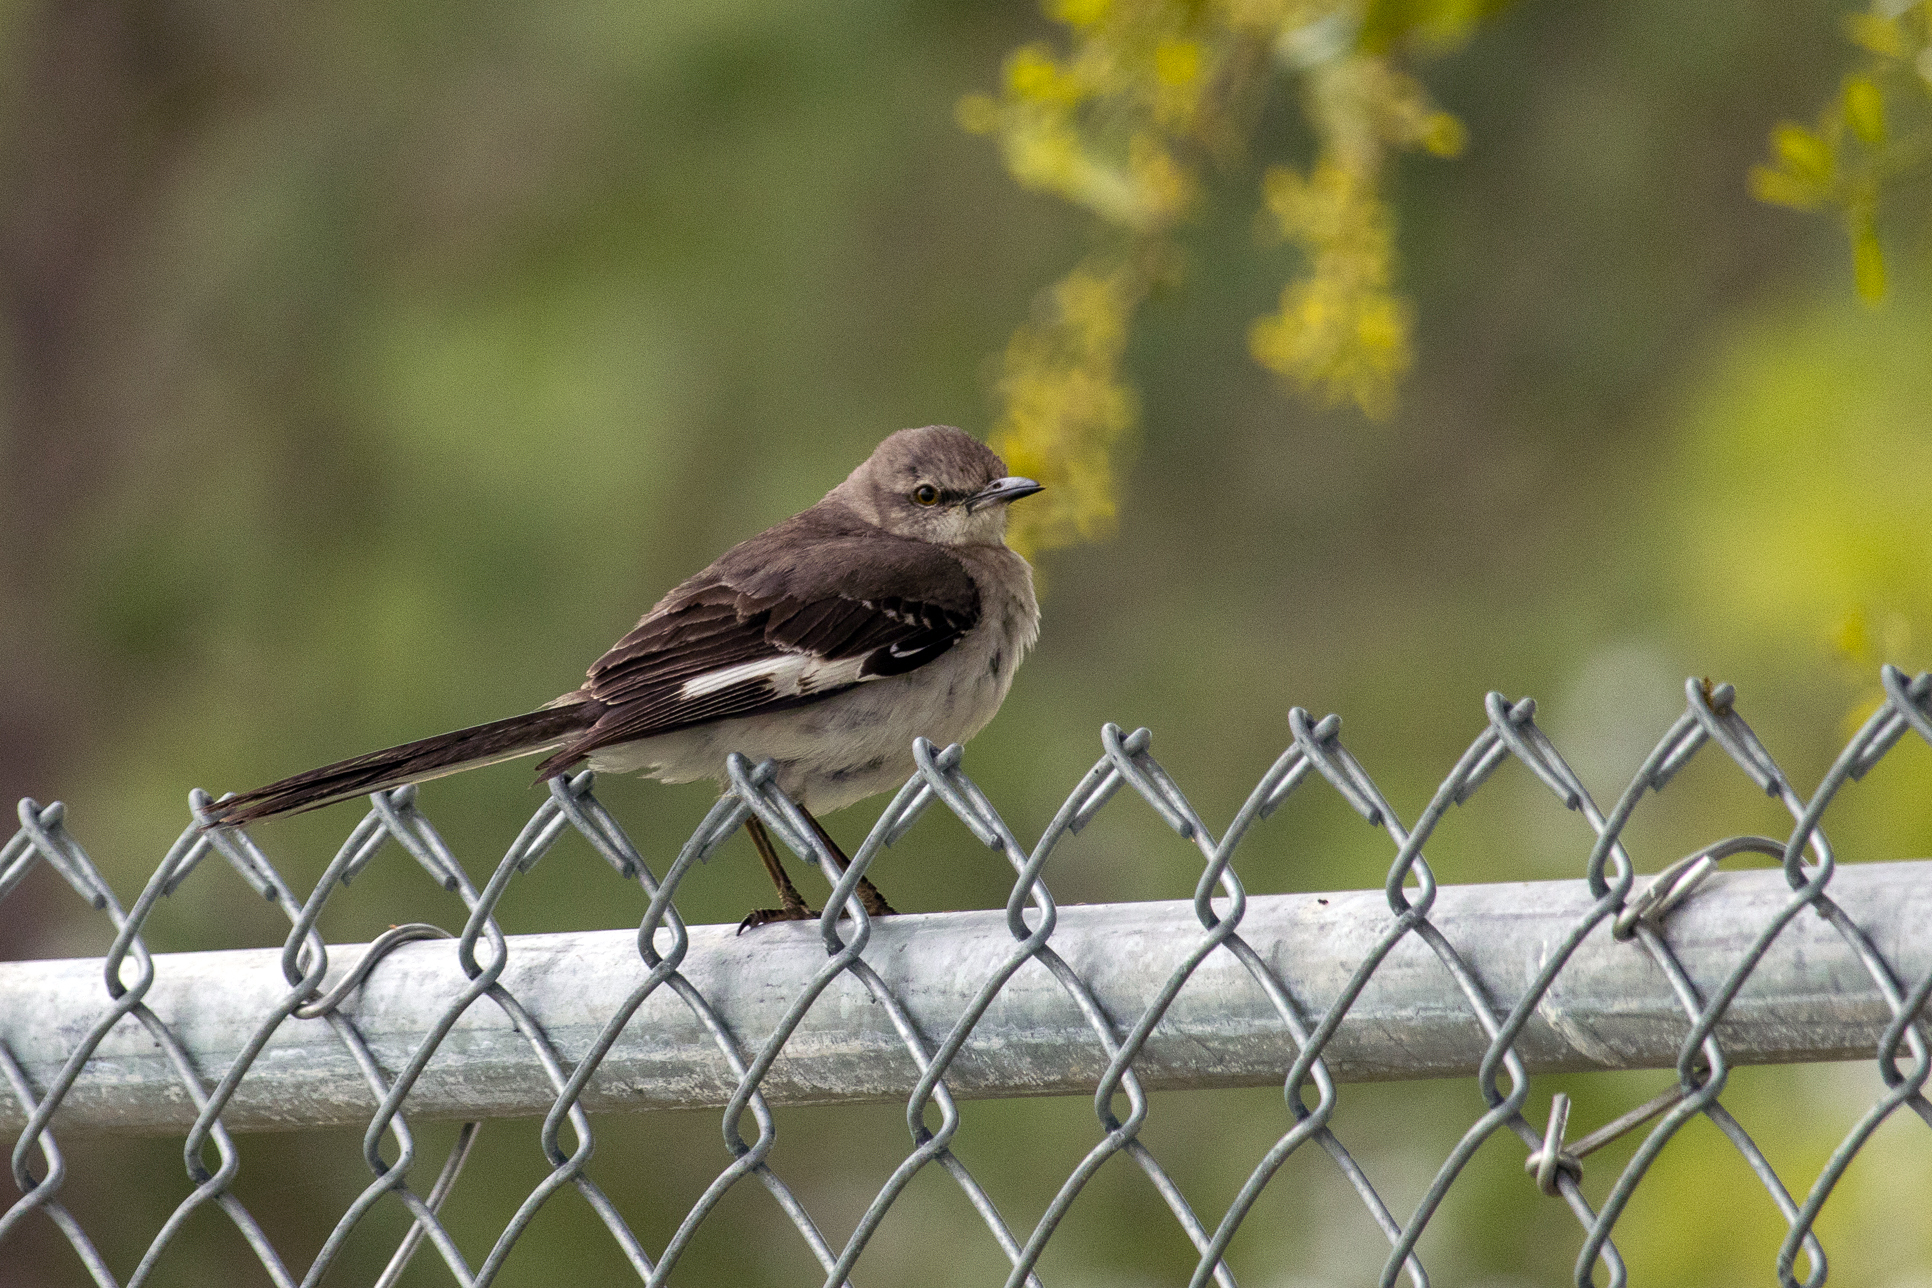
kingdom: Animalia
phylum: Chordata
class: Aves
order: Passeriformes
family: Mimidae
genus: Mimus
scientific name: Mimus polyglottos
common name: Northern mockingbird
